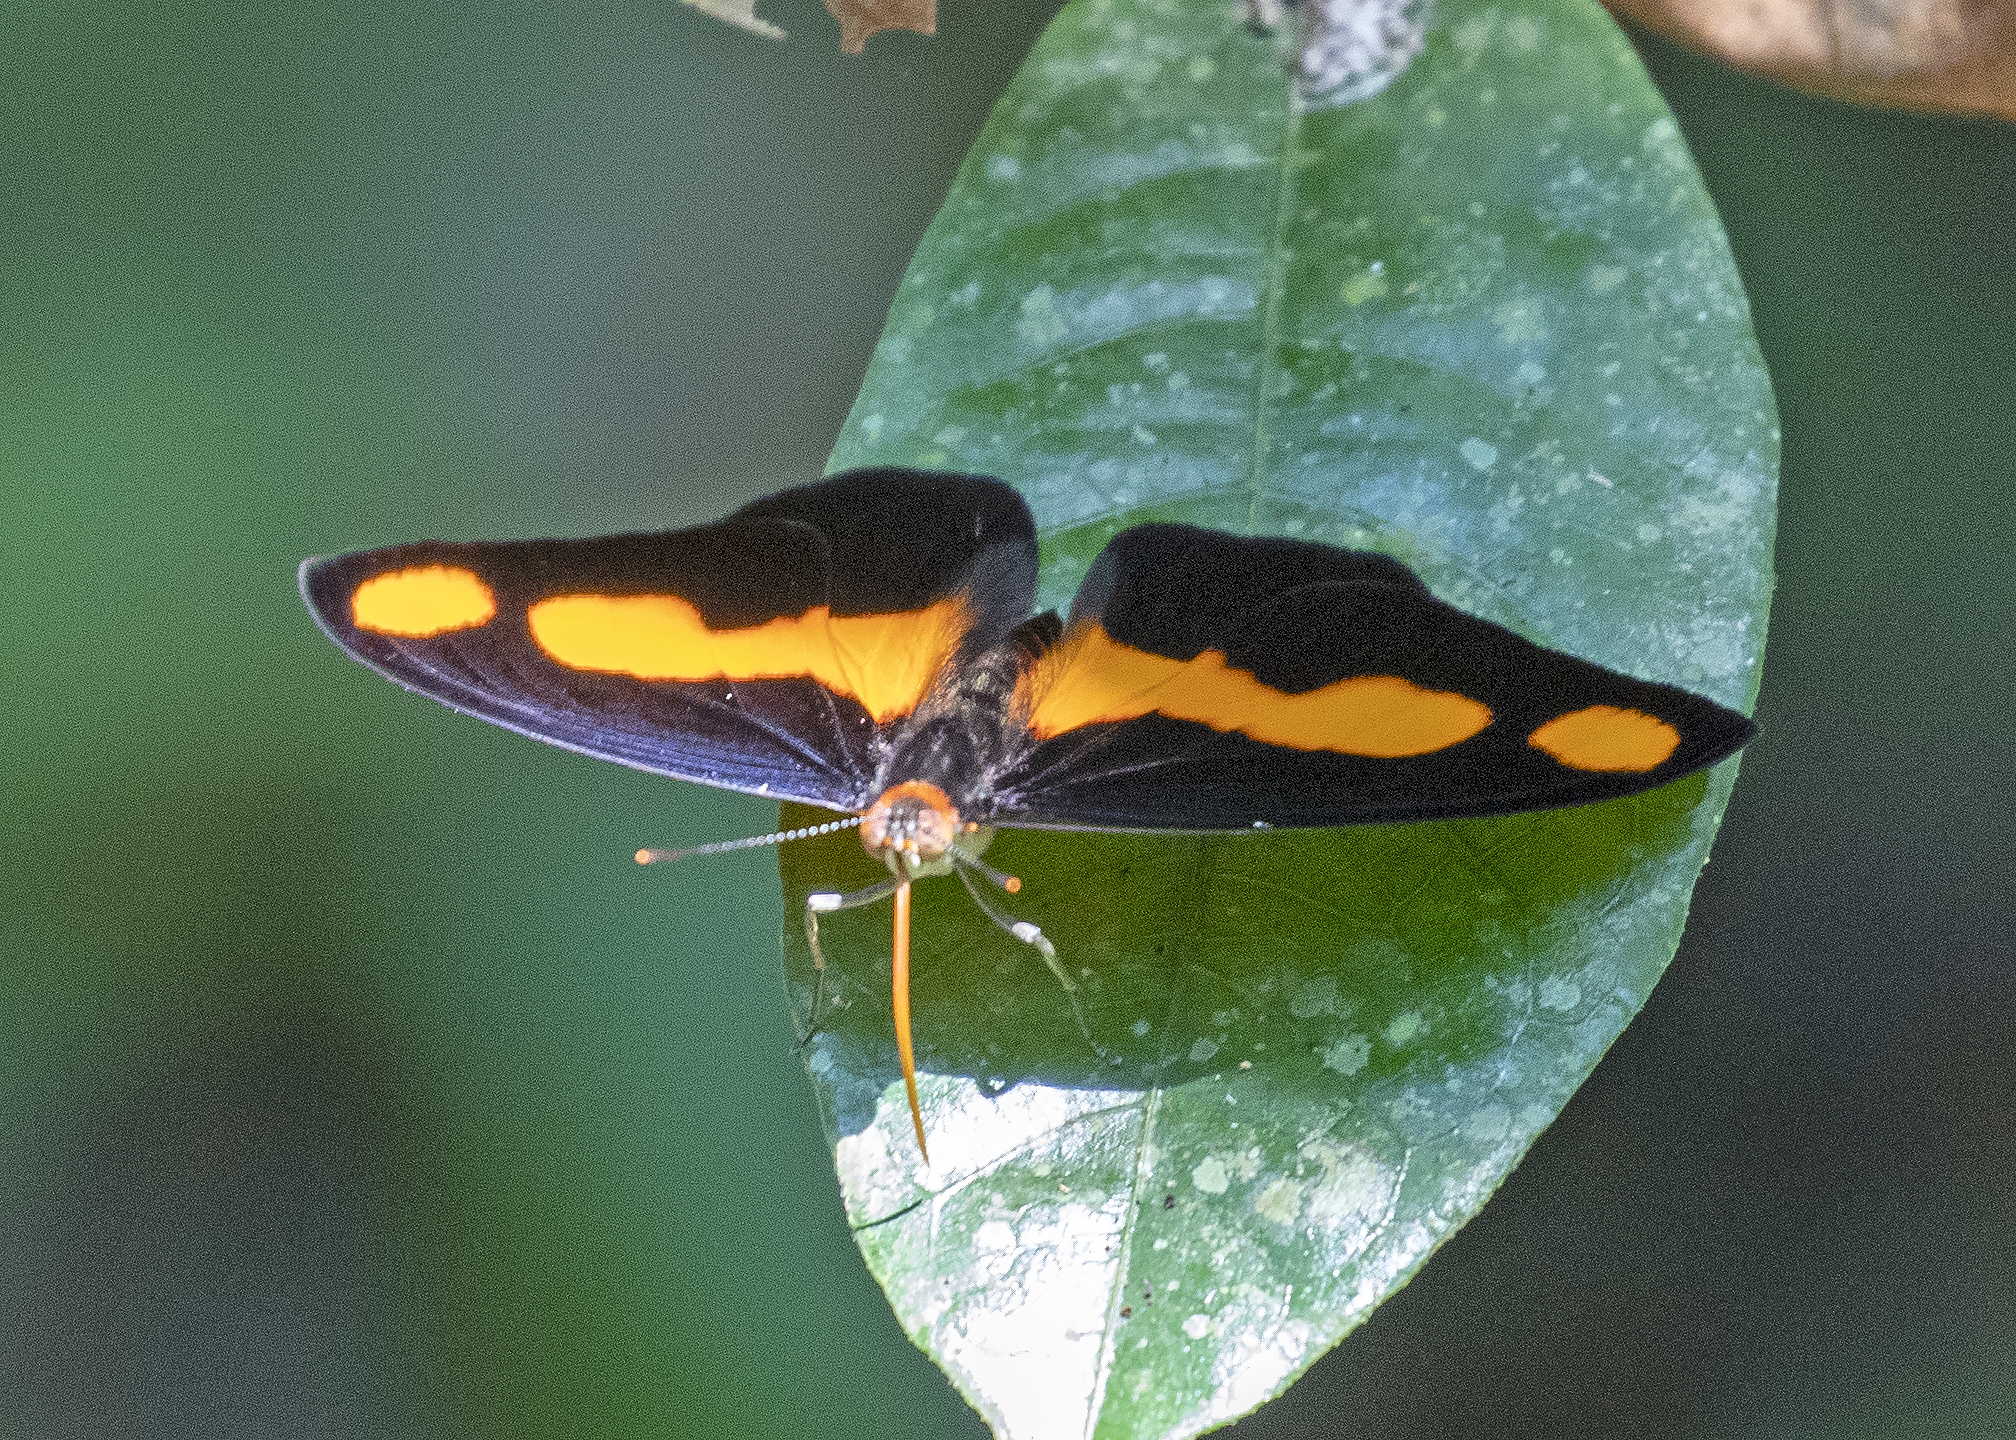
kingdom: Animalia
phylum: Arthropoda
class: Insecta
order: Lepidoptera
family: Nymphalidae
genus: Catonephele
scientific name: Catonephele antinoe
